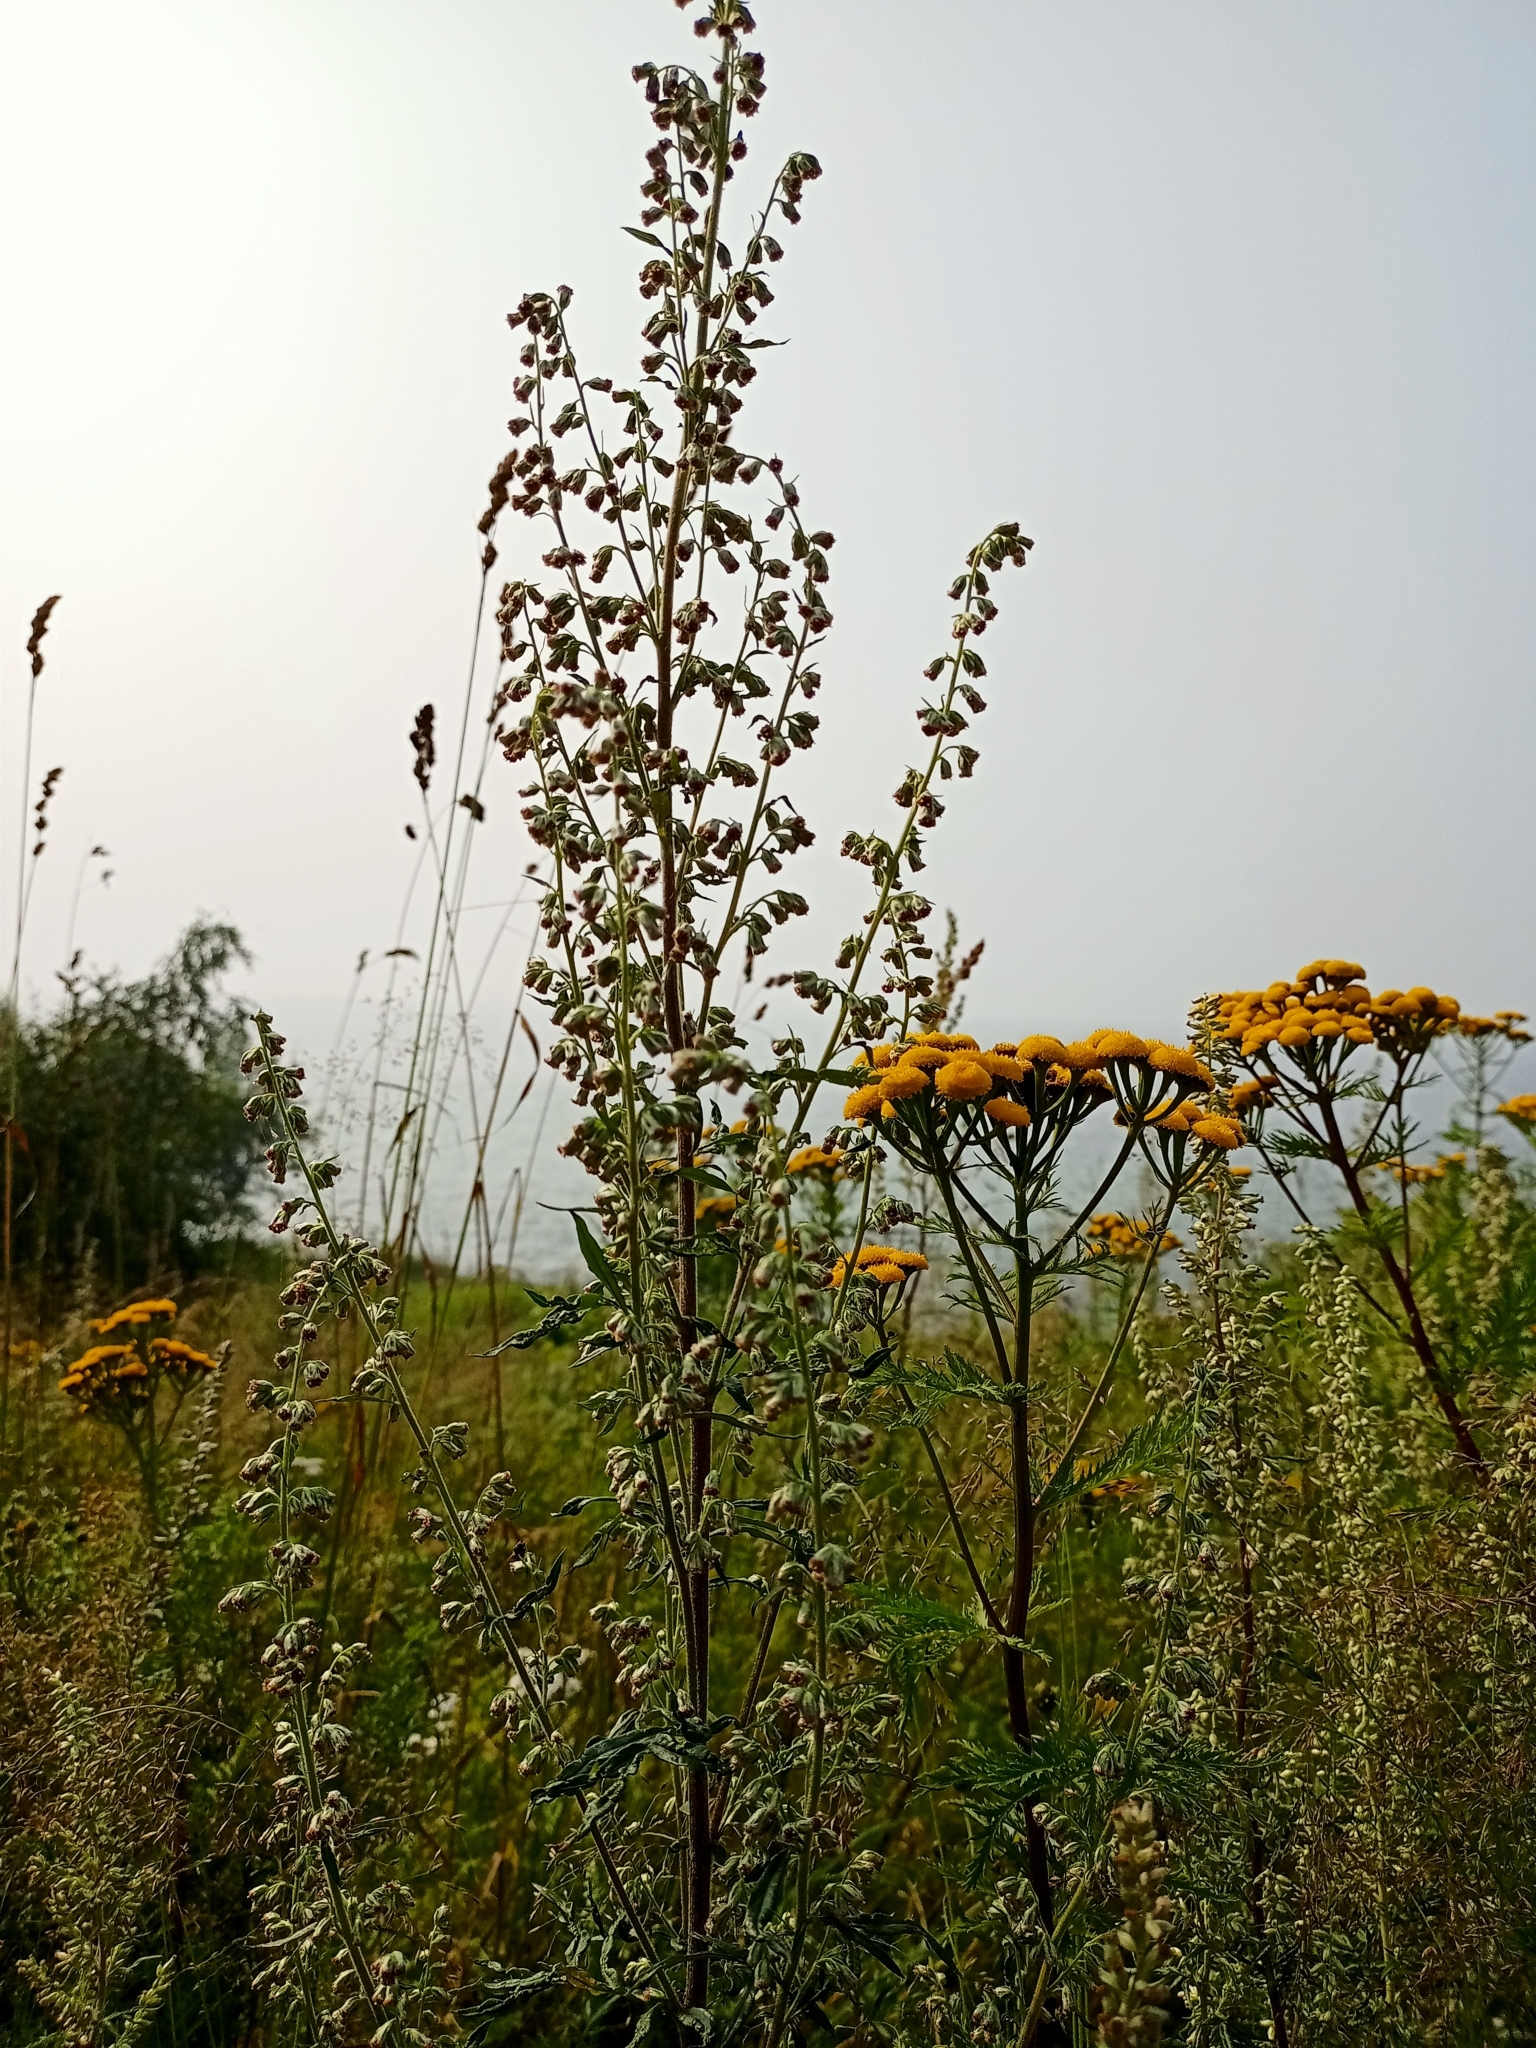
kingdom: Plantae
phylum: Tracheophyta
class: Magnoliopsida
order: Asterales
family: Asteraceae
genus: Artemisia
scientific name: Artemisia vulgaris
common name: Mugwort
